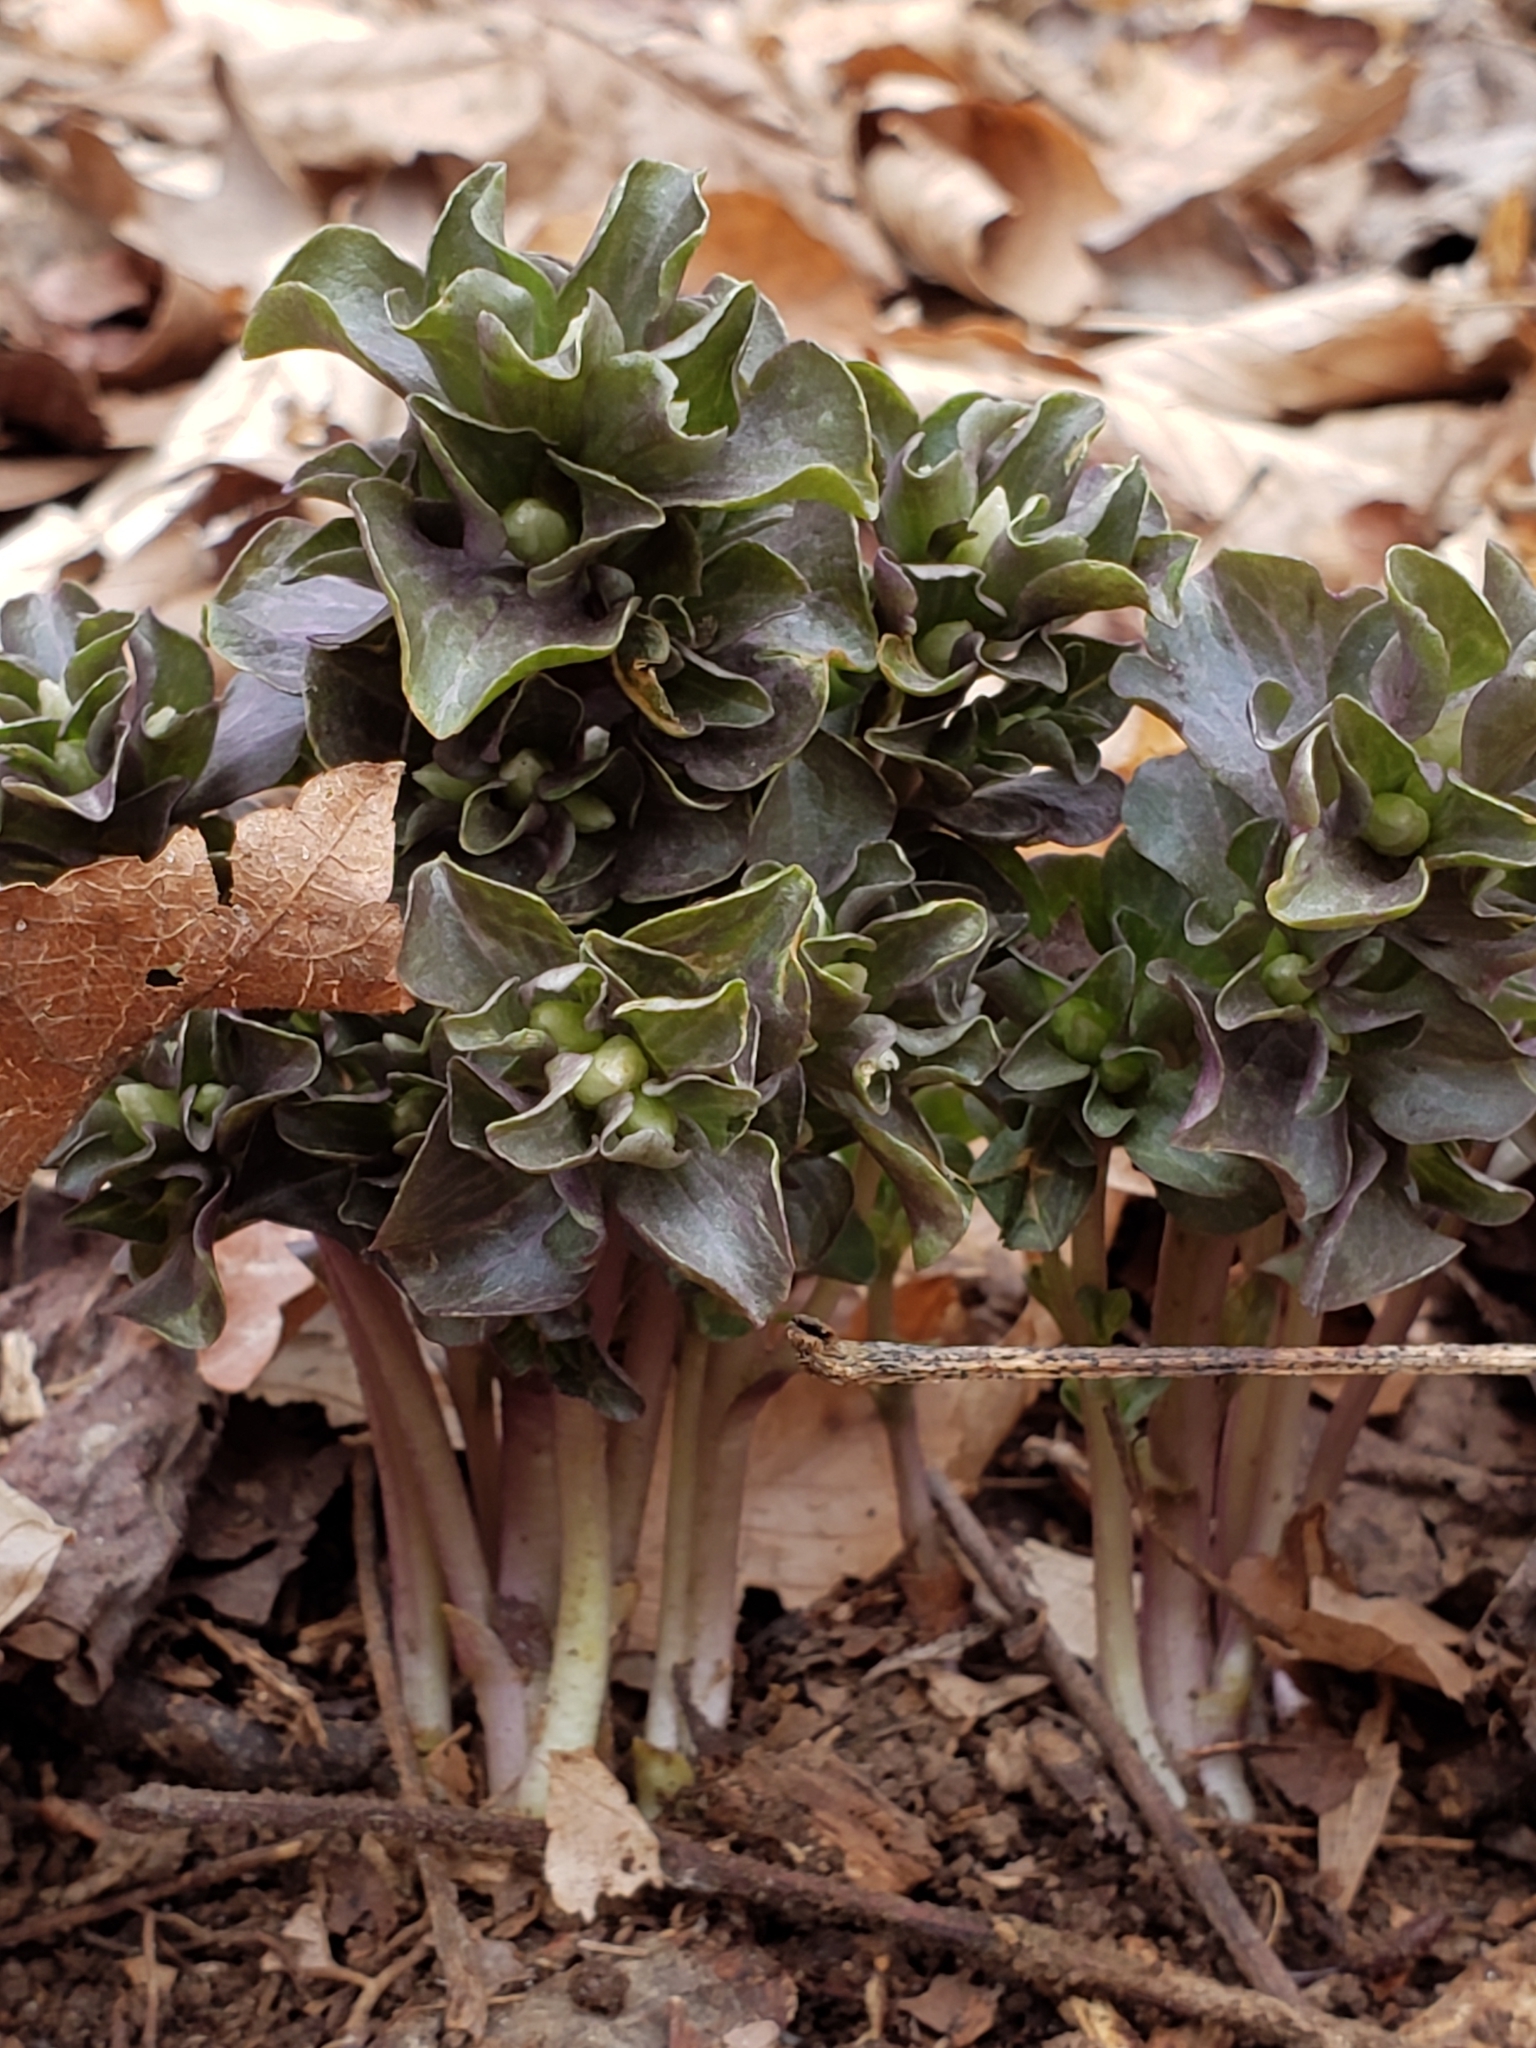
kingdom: Plantae
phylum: Tracheophyta
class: Magnoliopsida
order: Gentianales
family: Gentianaceae
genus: Obolaria
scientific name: Obolaria virginica
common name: Pennywort
